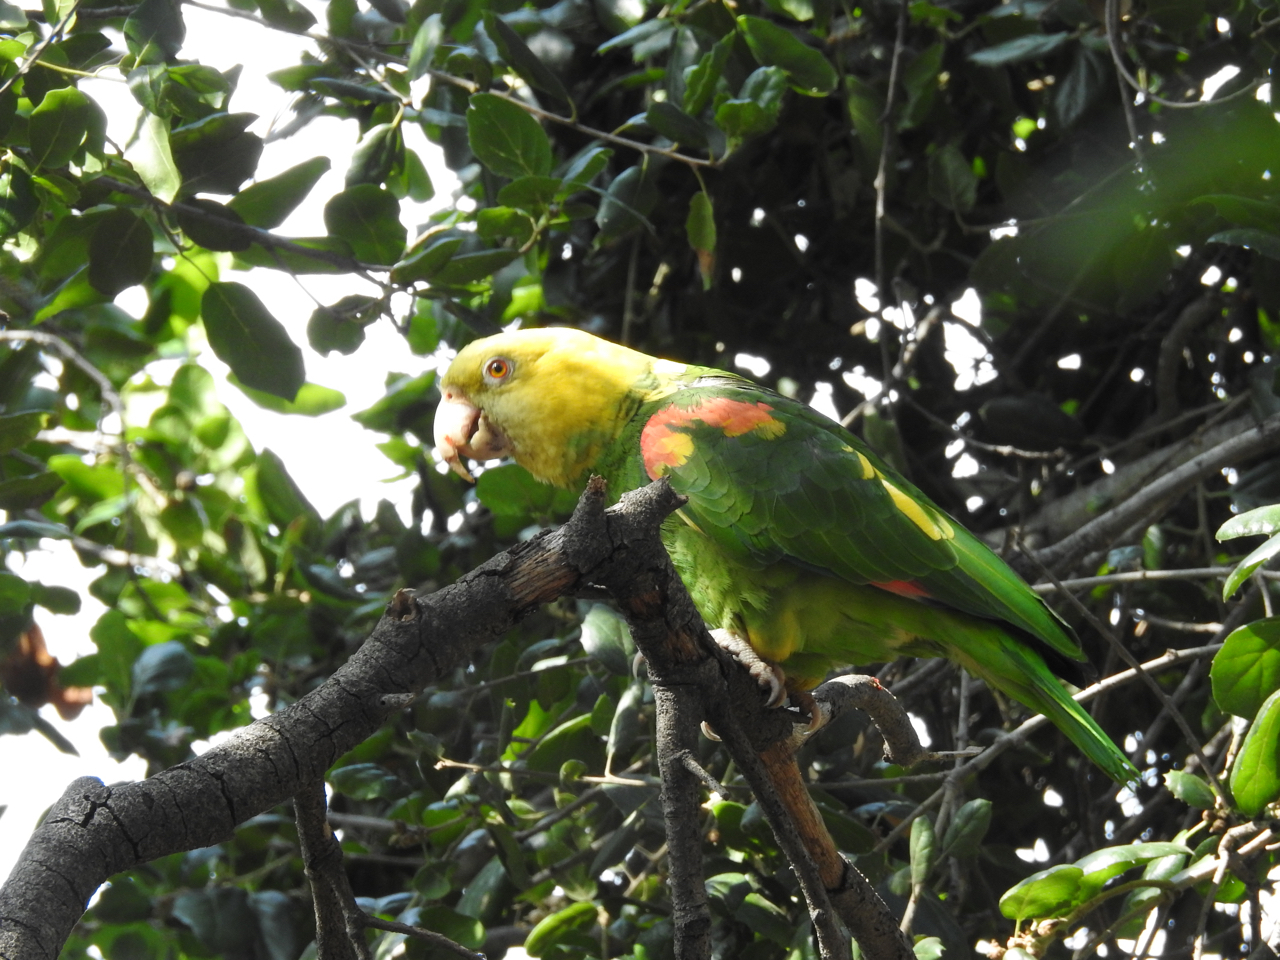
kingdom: Animalia
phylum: Chordata
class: Aves
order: Psittaciformes
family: Psittacidae
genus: Amazona
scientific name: Amazona oratrix
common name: Yellow-headed amazon
